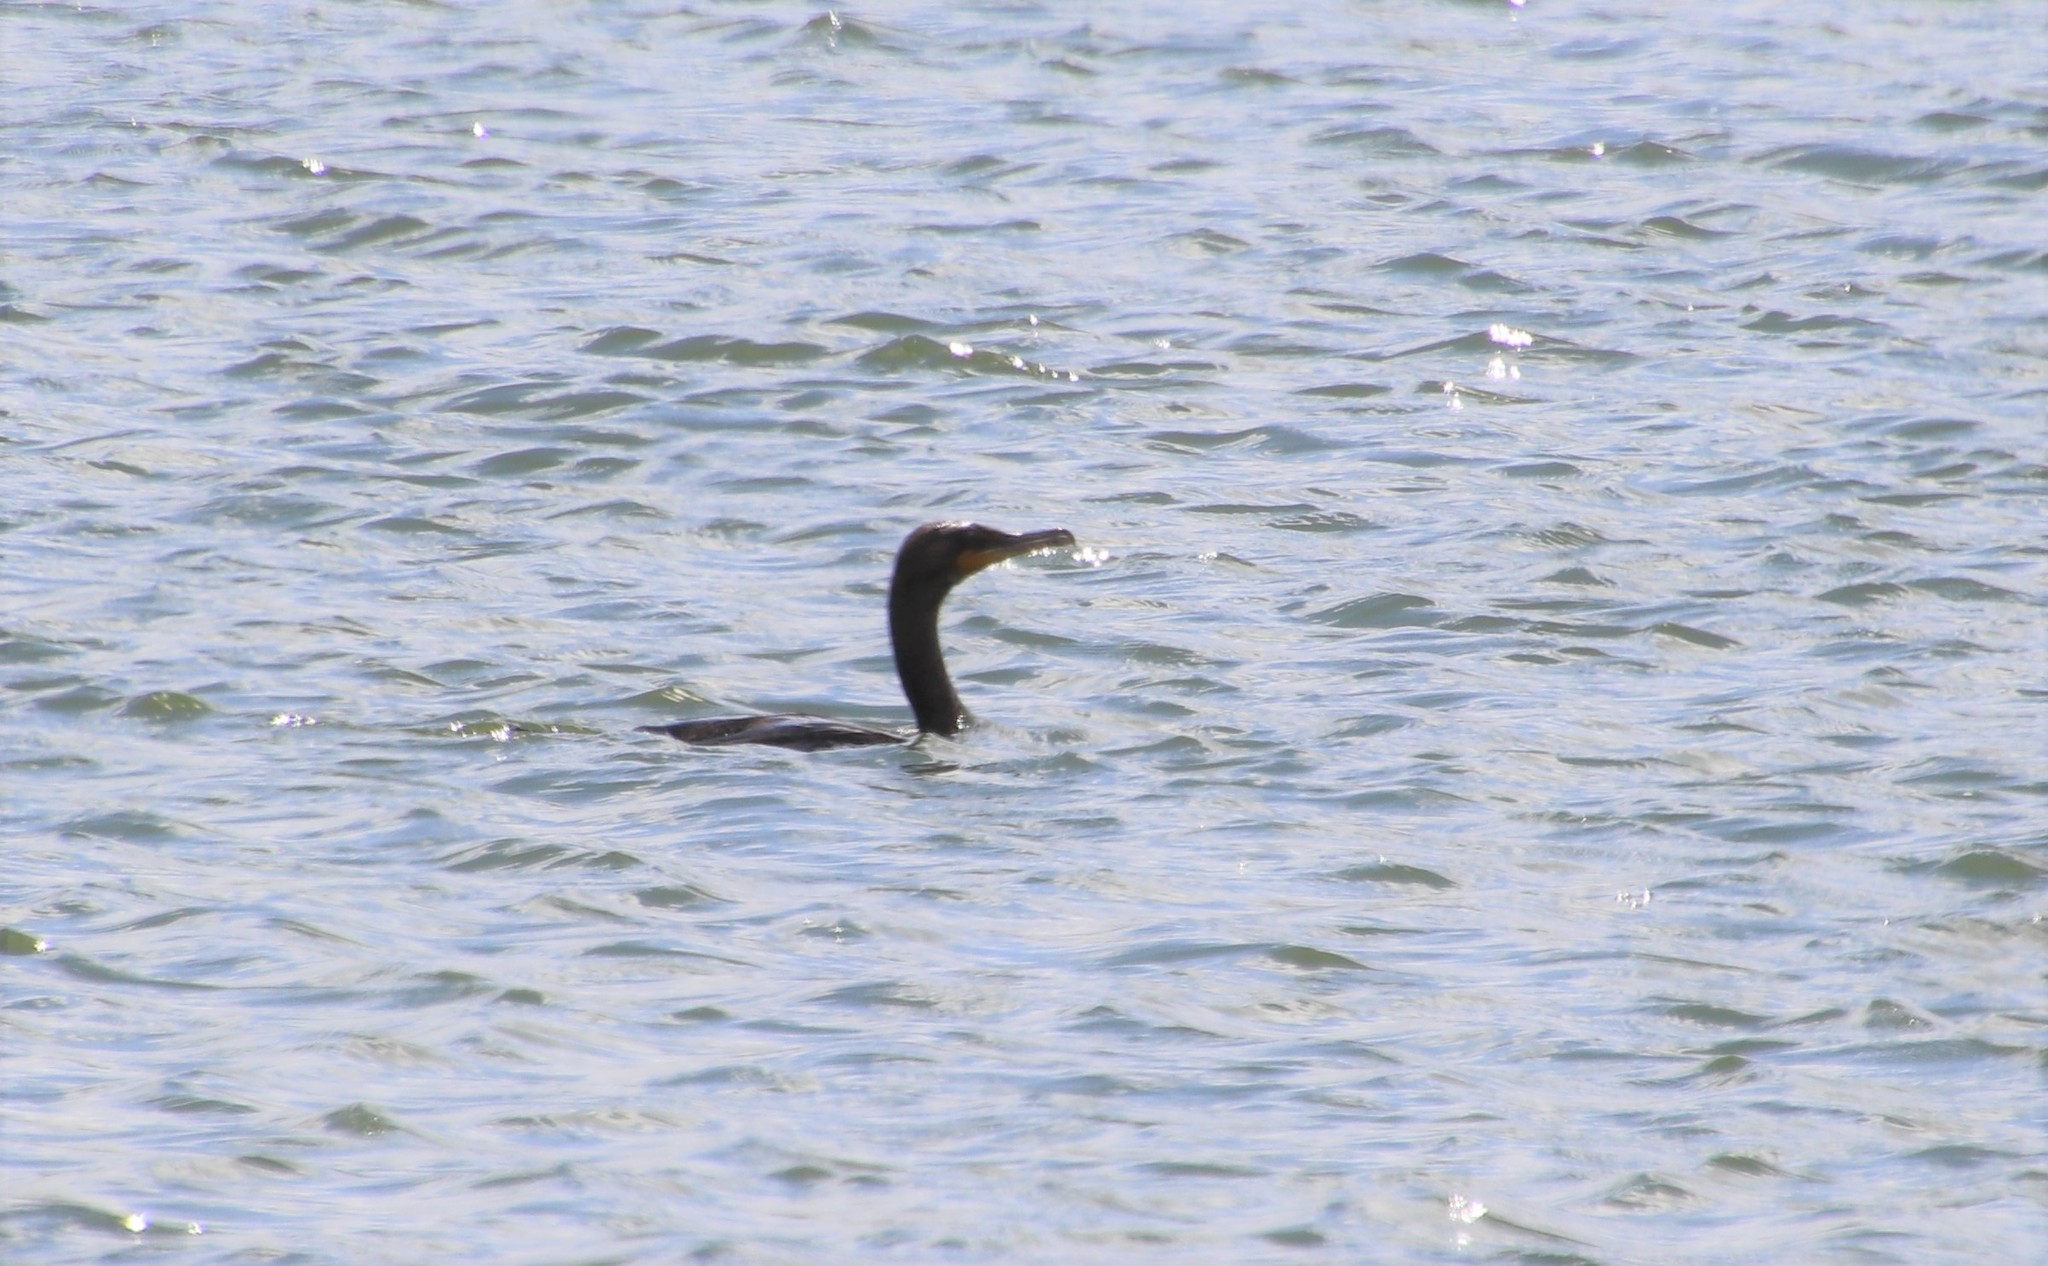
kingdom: Animalia
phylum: Chordata
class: Aves
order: Suliformes
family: Phalacrocoracidae
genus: Phalacrocorax
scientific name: Phalacrocorax auritus
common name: Double-crested cormorant
